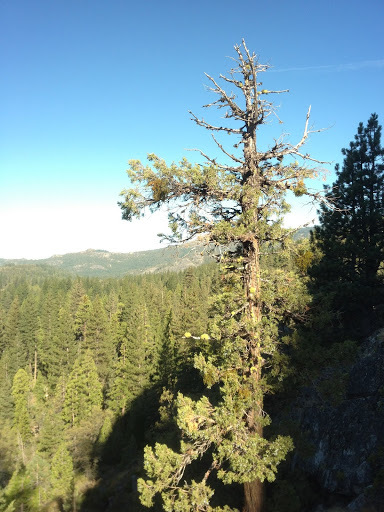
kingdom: Plantae
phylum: Tracheophyta
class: Pinopsida
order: Pinales
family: Cupressaceae
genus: Juniperus
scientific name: Juniperus occidentalis
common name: Western juniper
